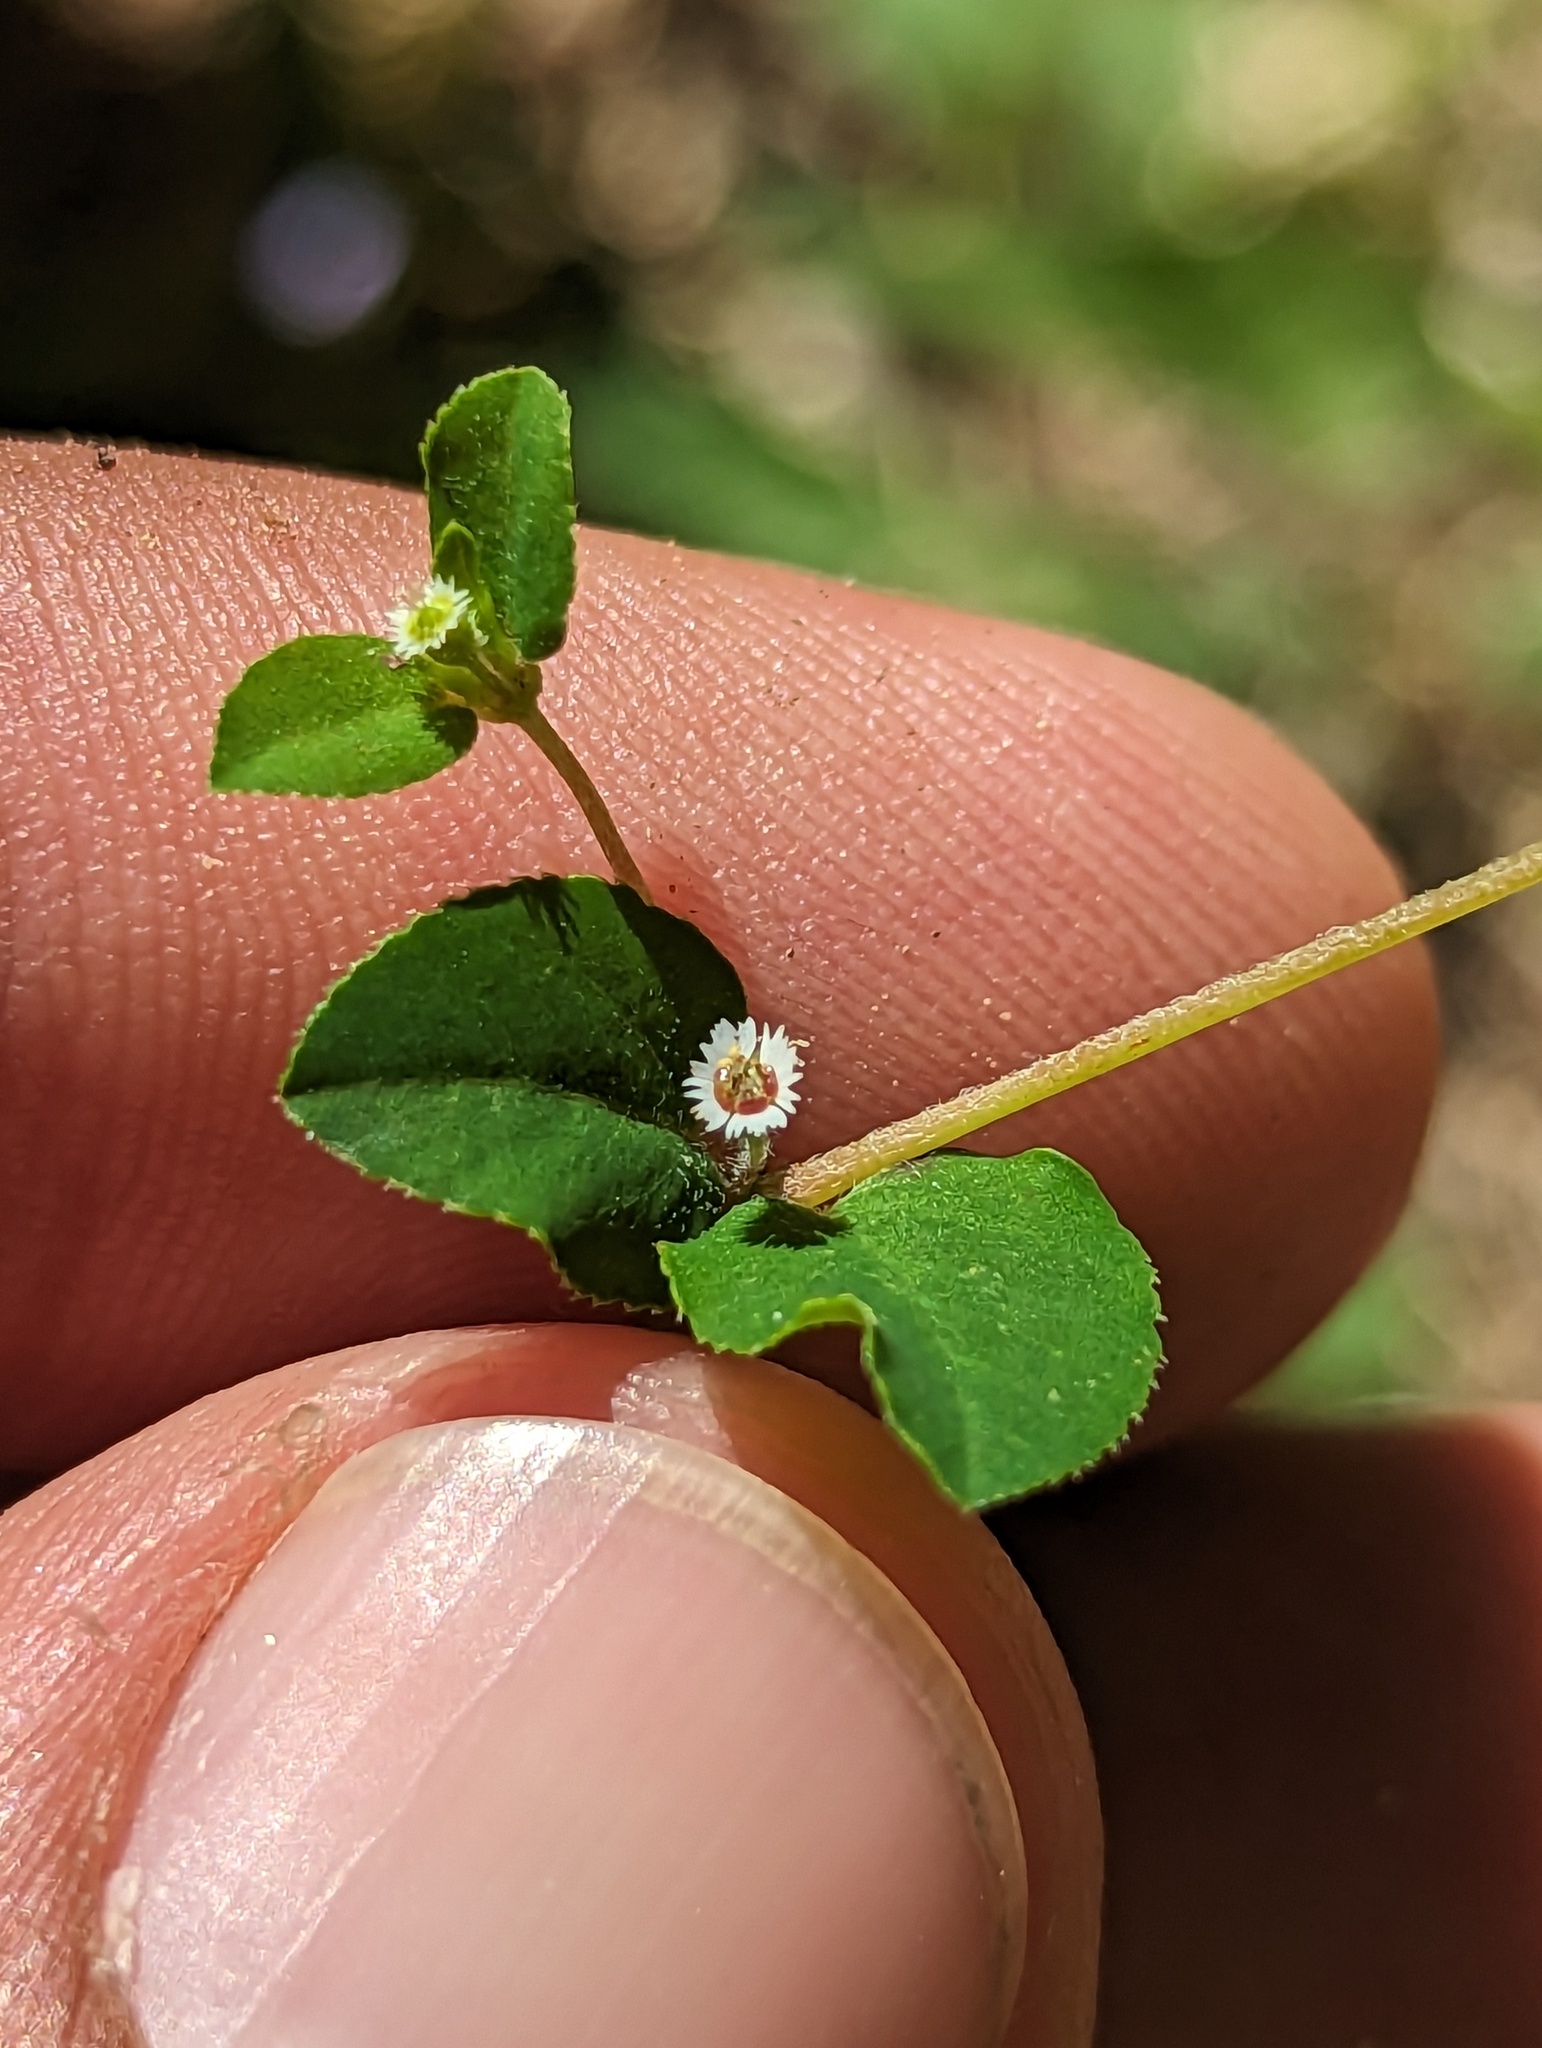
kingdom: Plantae
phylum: Tracheophyta
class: Magnoliopsida
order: Malpighiales
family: Euphorbiaceae
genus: Euphorbia
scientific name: Euphorbia dentosa
